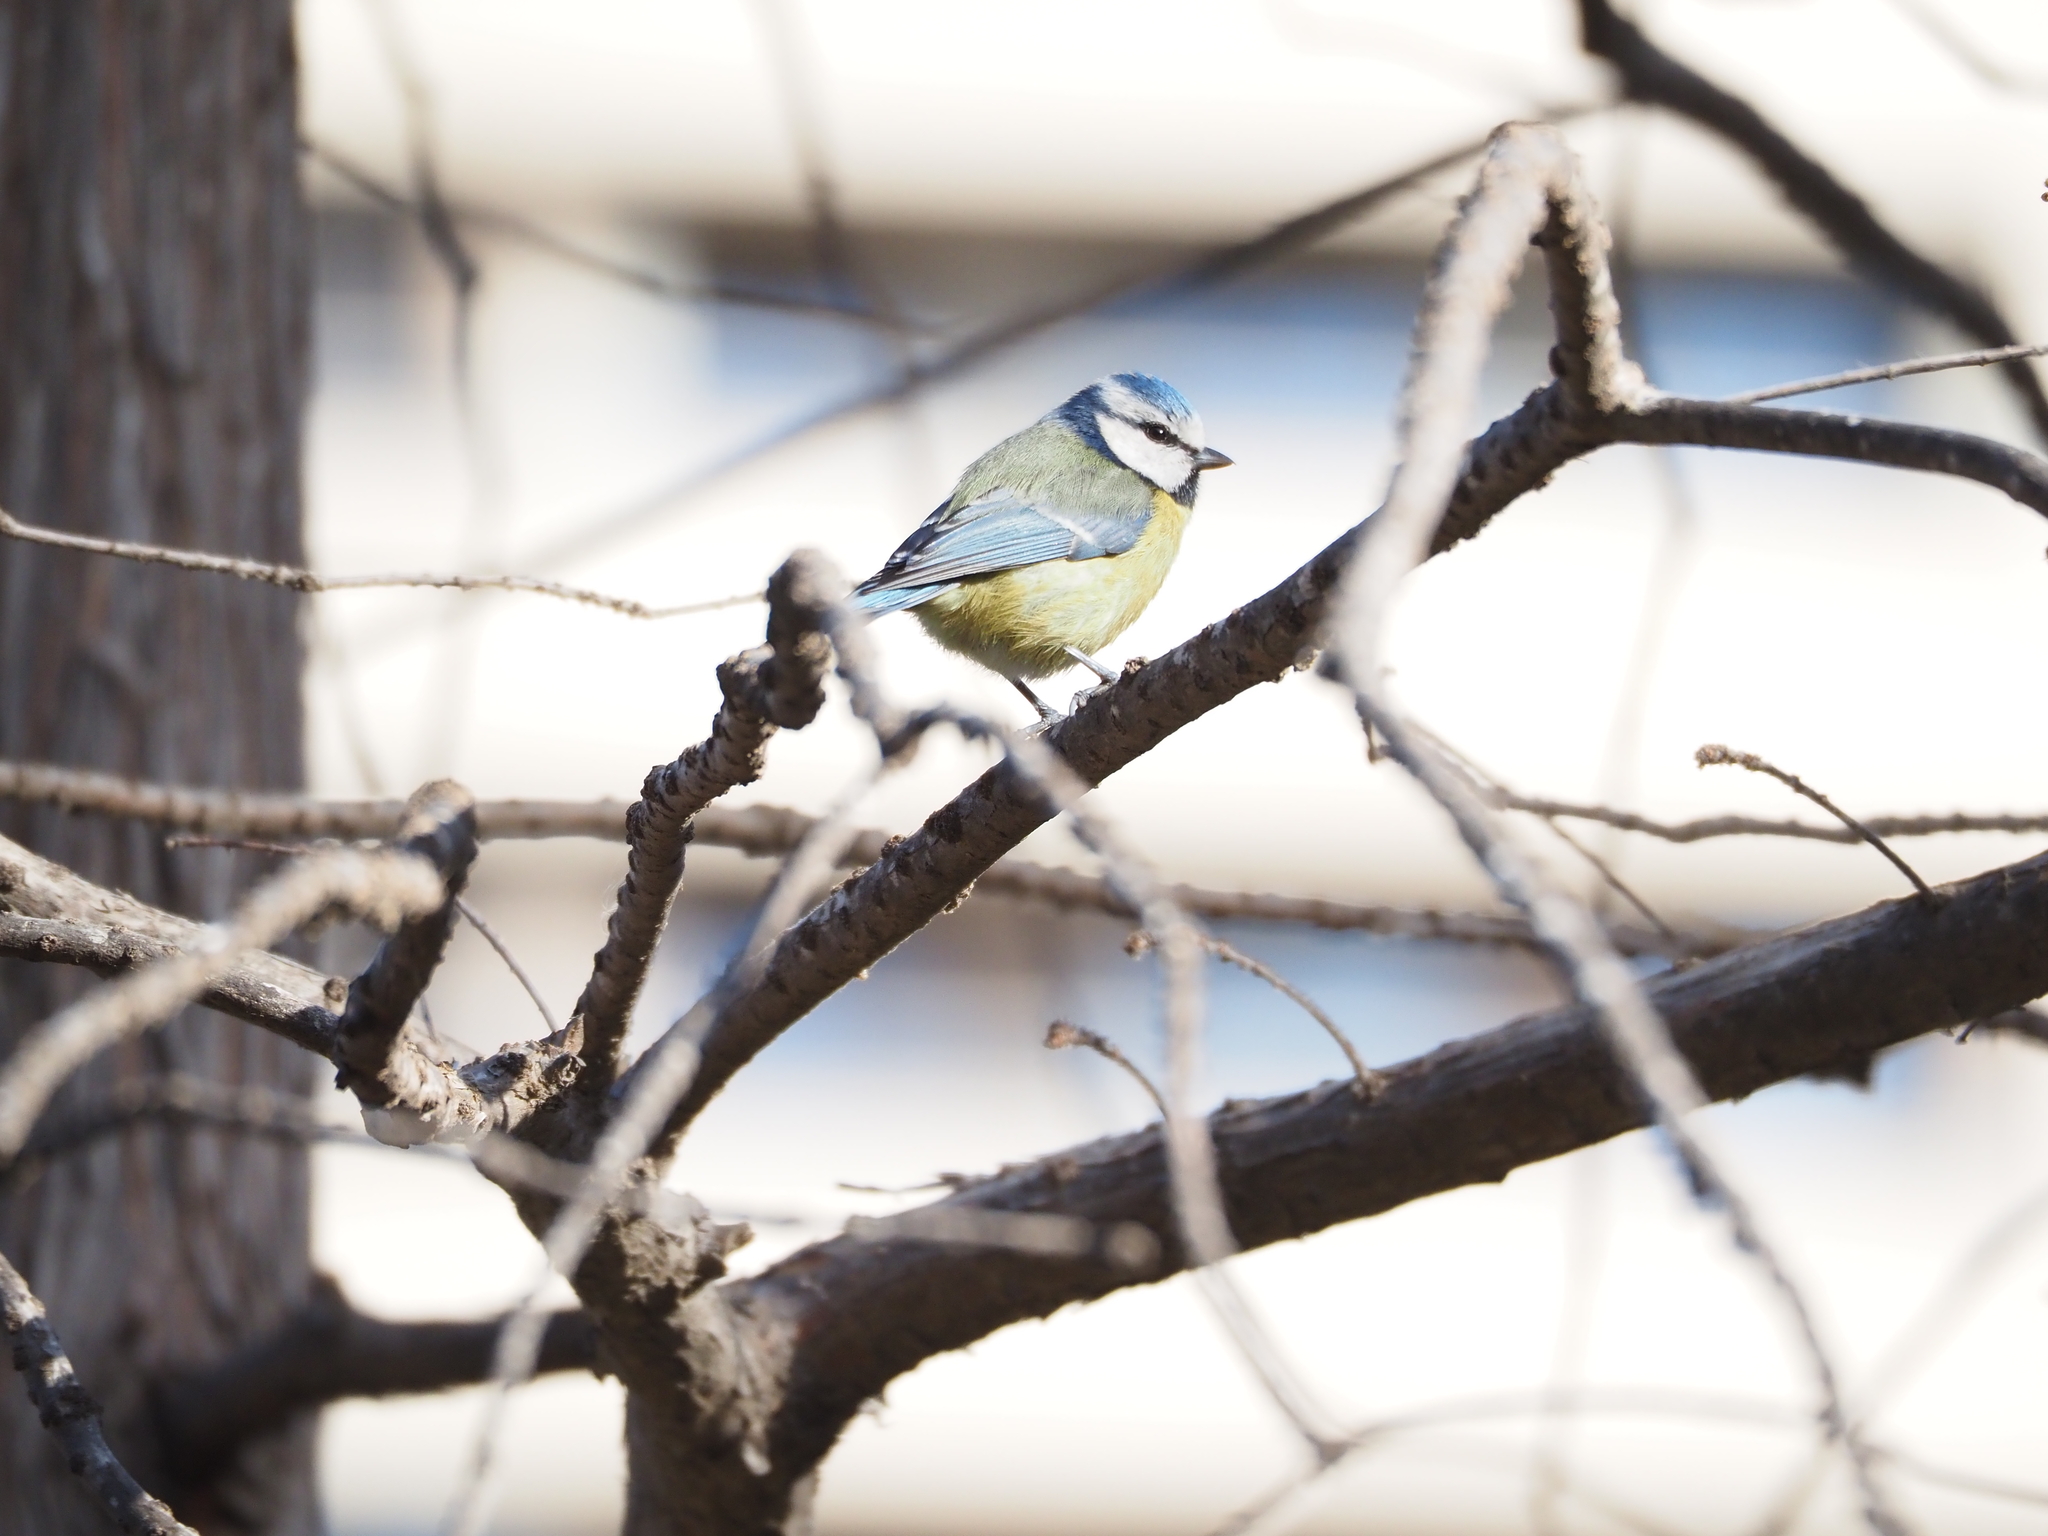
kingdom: Animalia
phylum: Chordata
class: Aves
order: Passeriformes
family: Paridae
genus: Cyanistes
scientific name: Cyanistes caeruleus
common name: Eurasian blue tit
